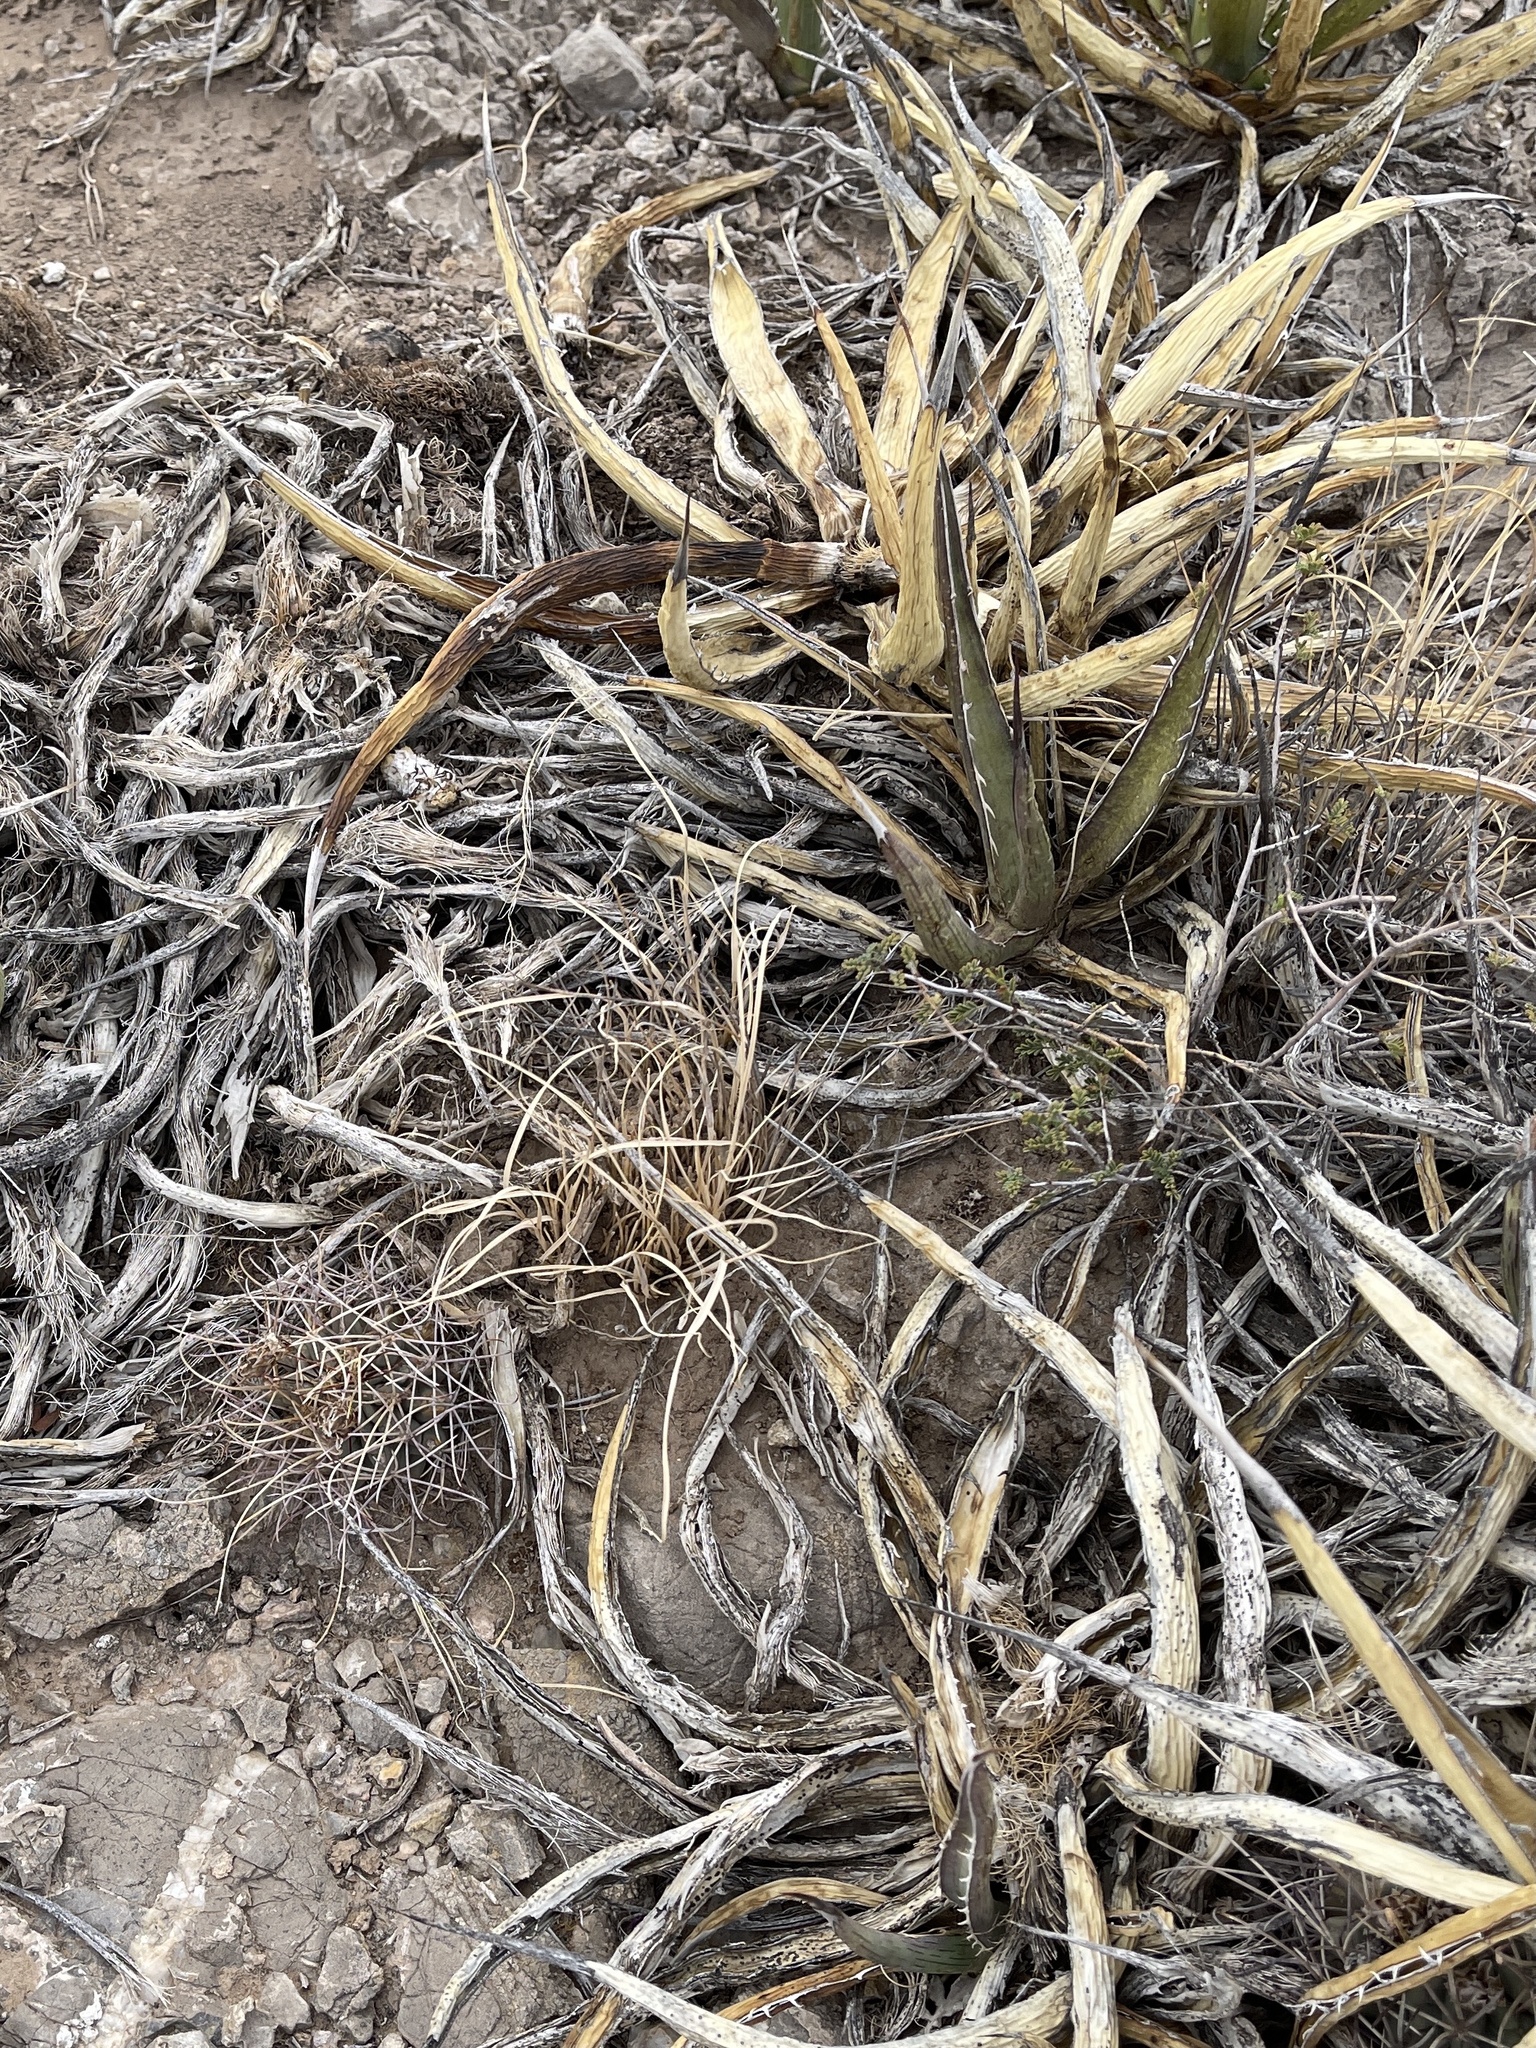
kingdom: Plantae
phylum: Tracheophyta
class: Liliopsida
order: Asparagales
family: Asparagaceae
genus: Agave
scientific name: Agave lechuguilla
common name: Lecheguilla agave
